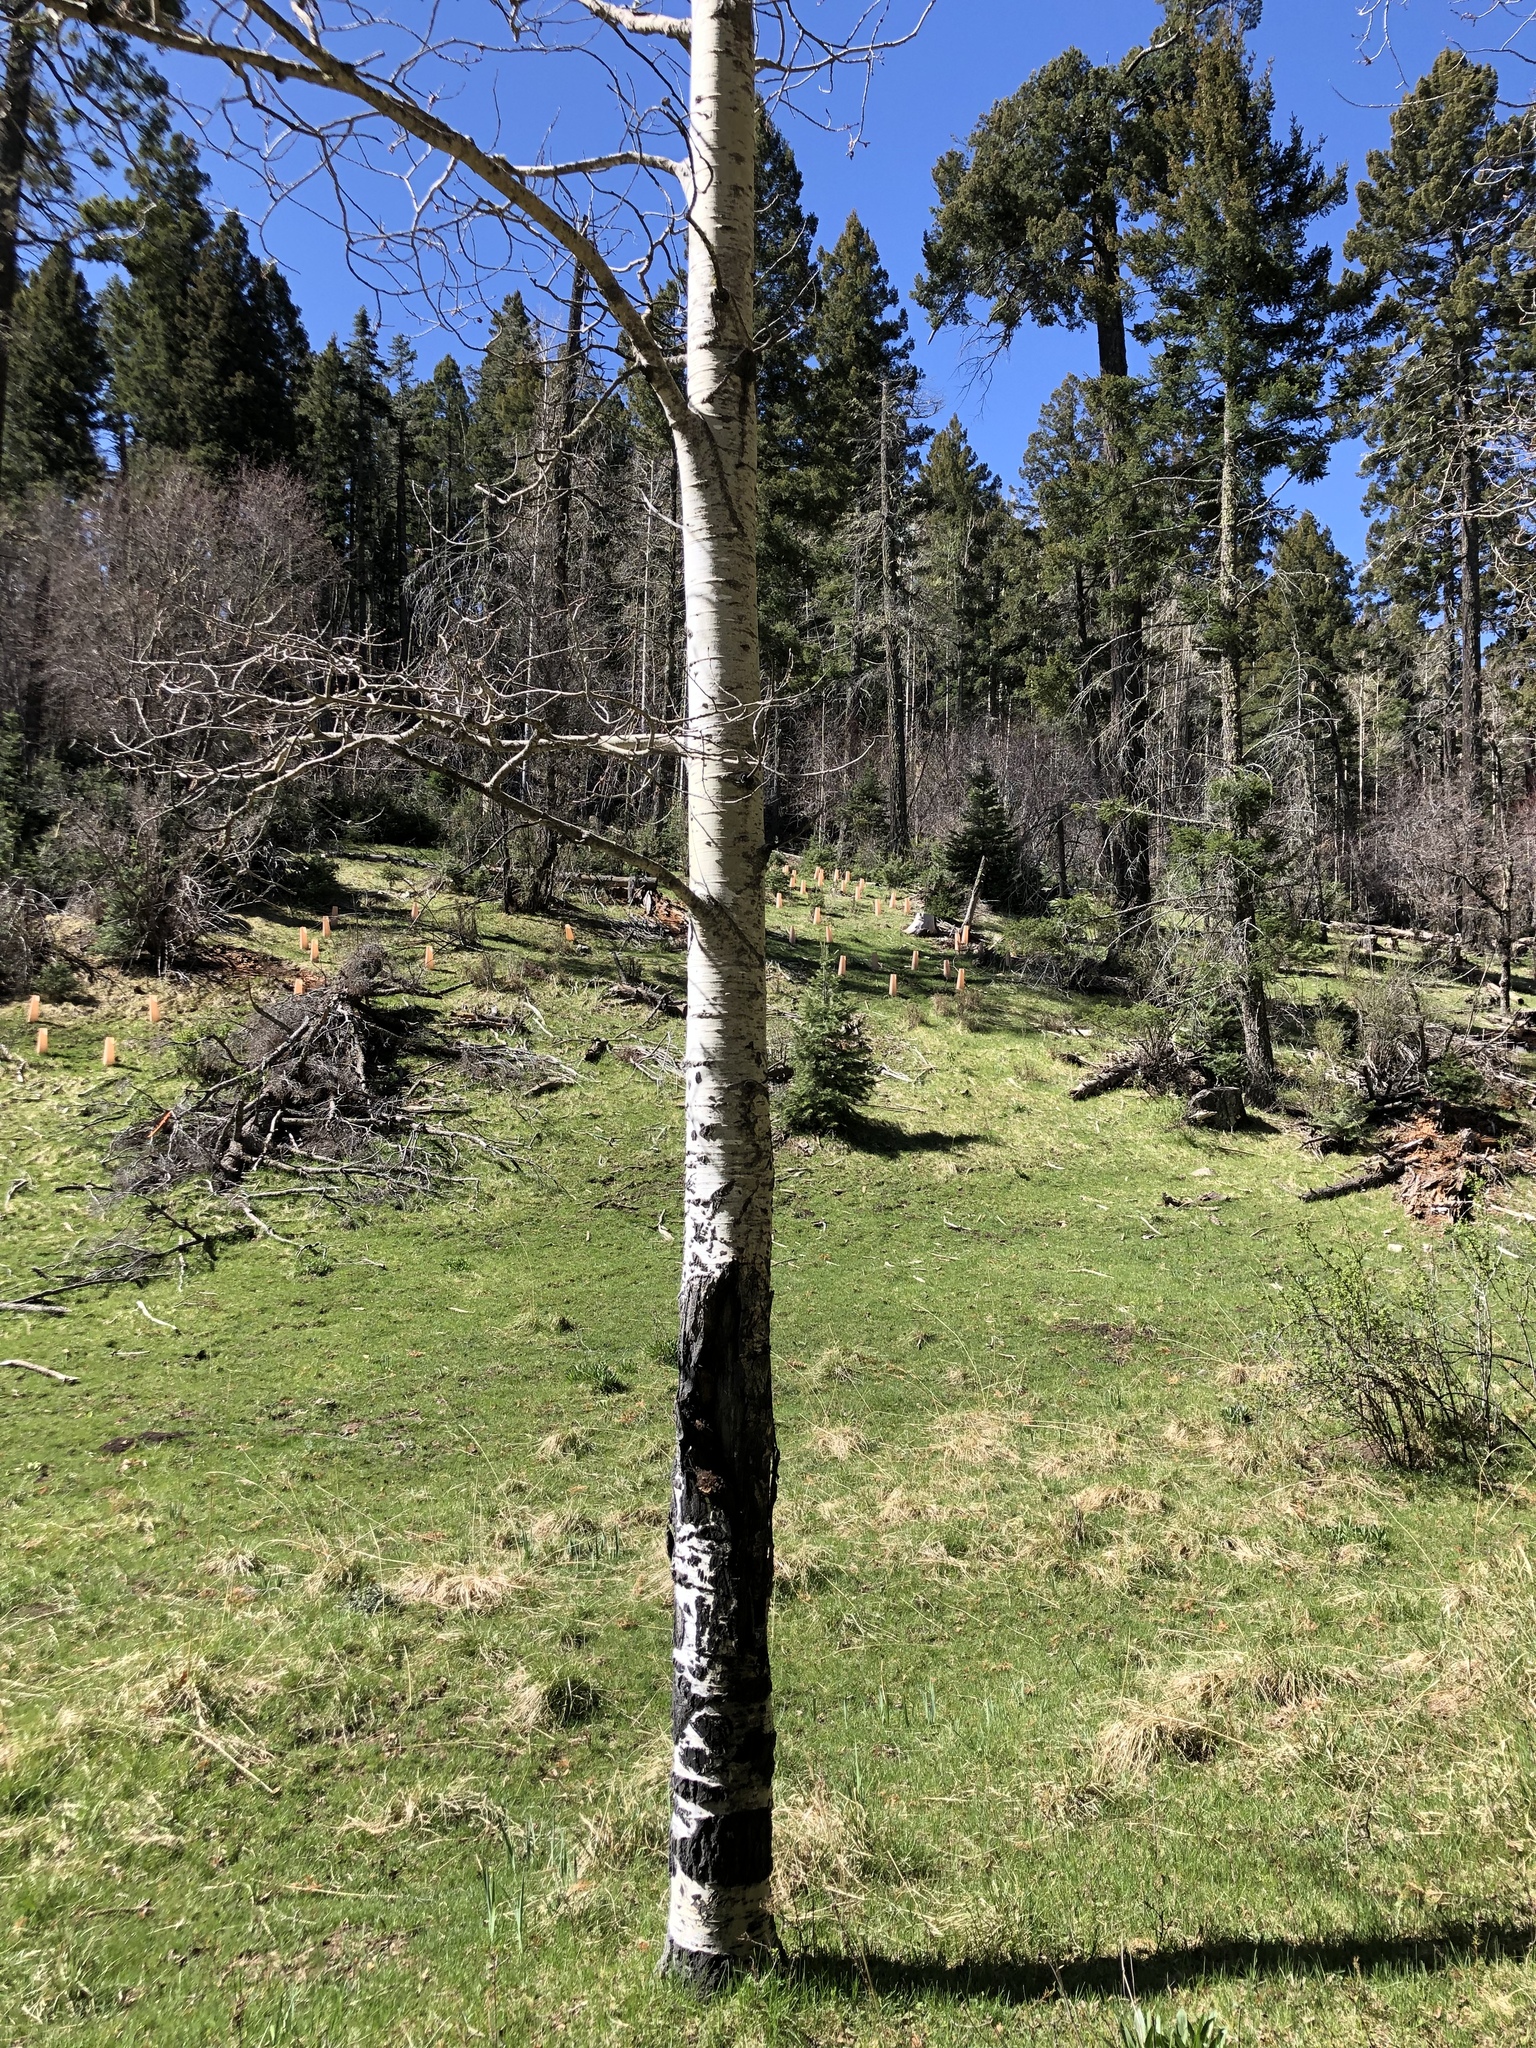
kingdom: Plantae
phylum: Tracheophyta
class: Magnoliopsida
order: Malpighiales
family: Salicaceae
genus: Populus
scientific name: Populus tremuloides
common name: Quaking aspen
